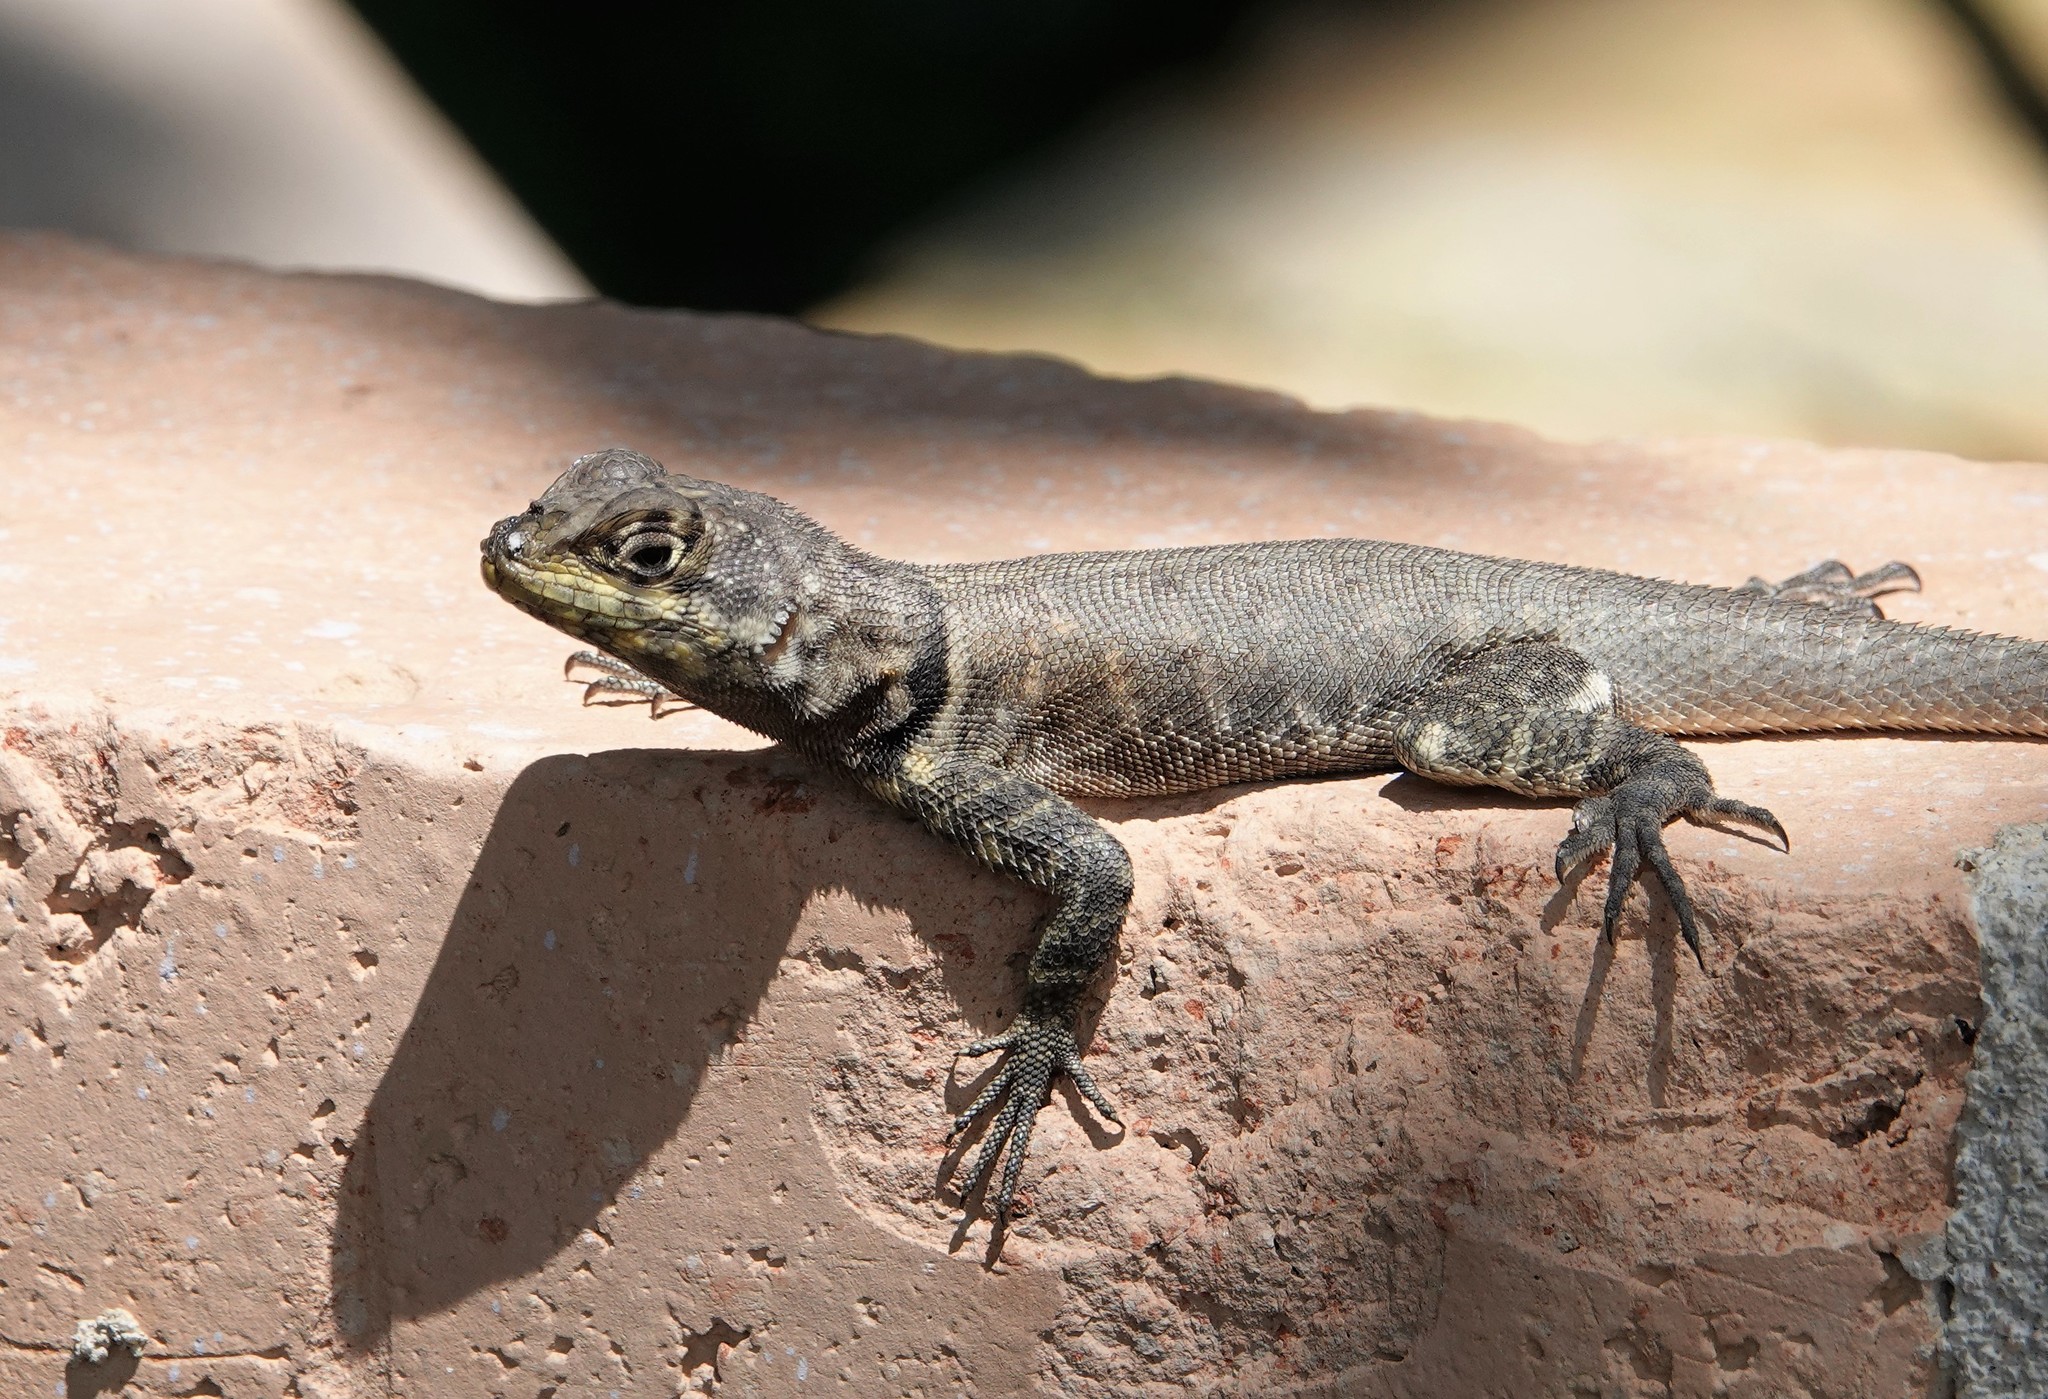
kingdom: Animalia
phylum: Chordata
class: Squamata
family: Tropiduridae
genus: Tropidurus
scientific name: Tropidurus hispidus
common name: Peters' lava lizard
